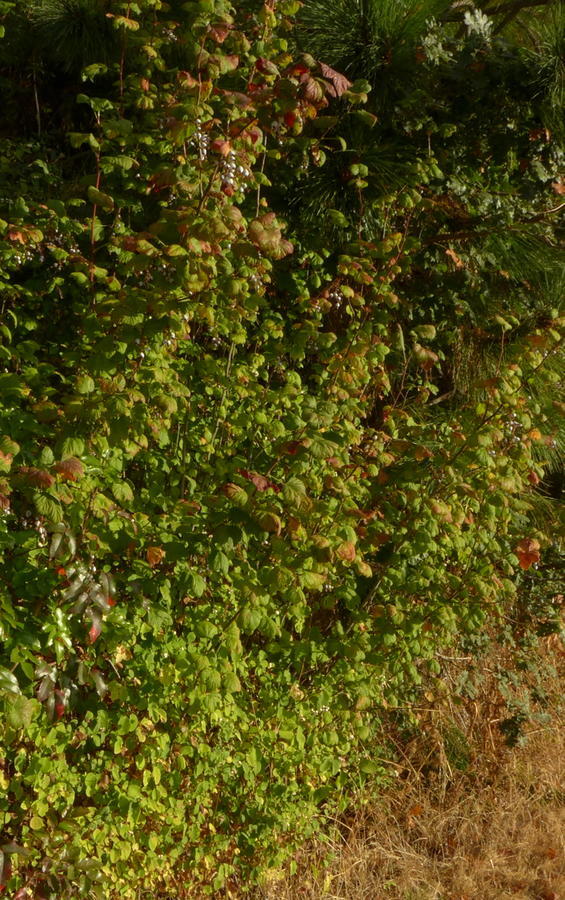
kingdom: Plantae
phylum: Tracheophyta
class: Magnoliopsida
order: Saxifragales
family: Grossulariaceae
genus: Ribes
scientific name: Ribes sanguineum
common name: Flowering currant
